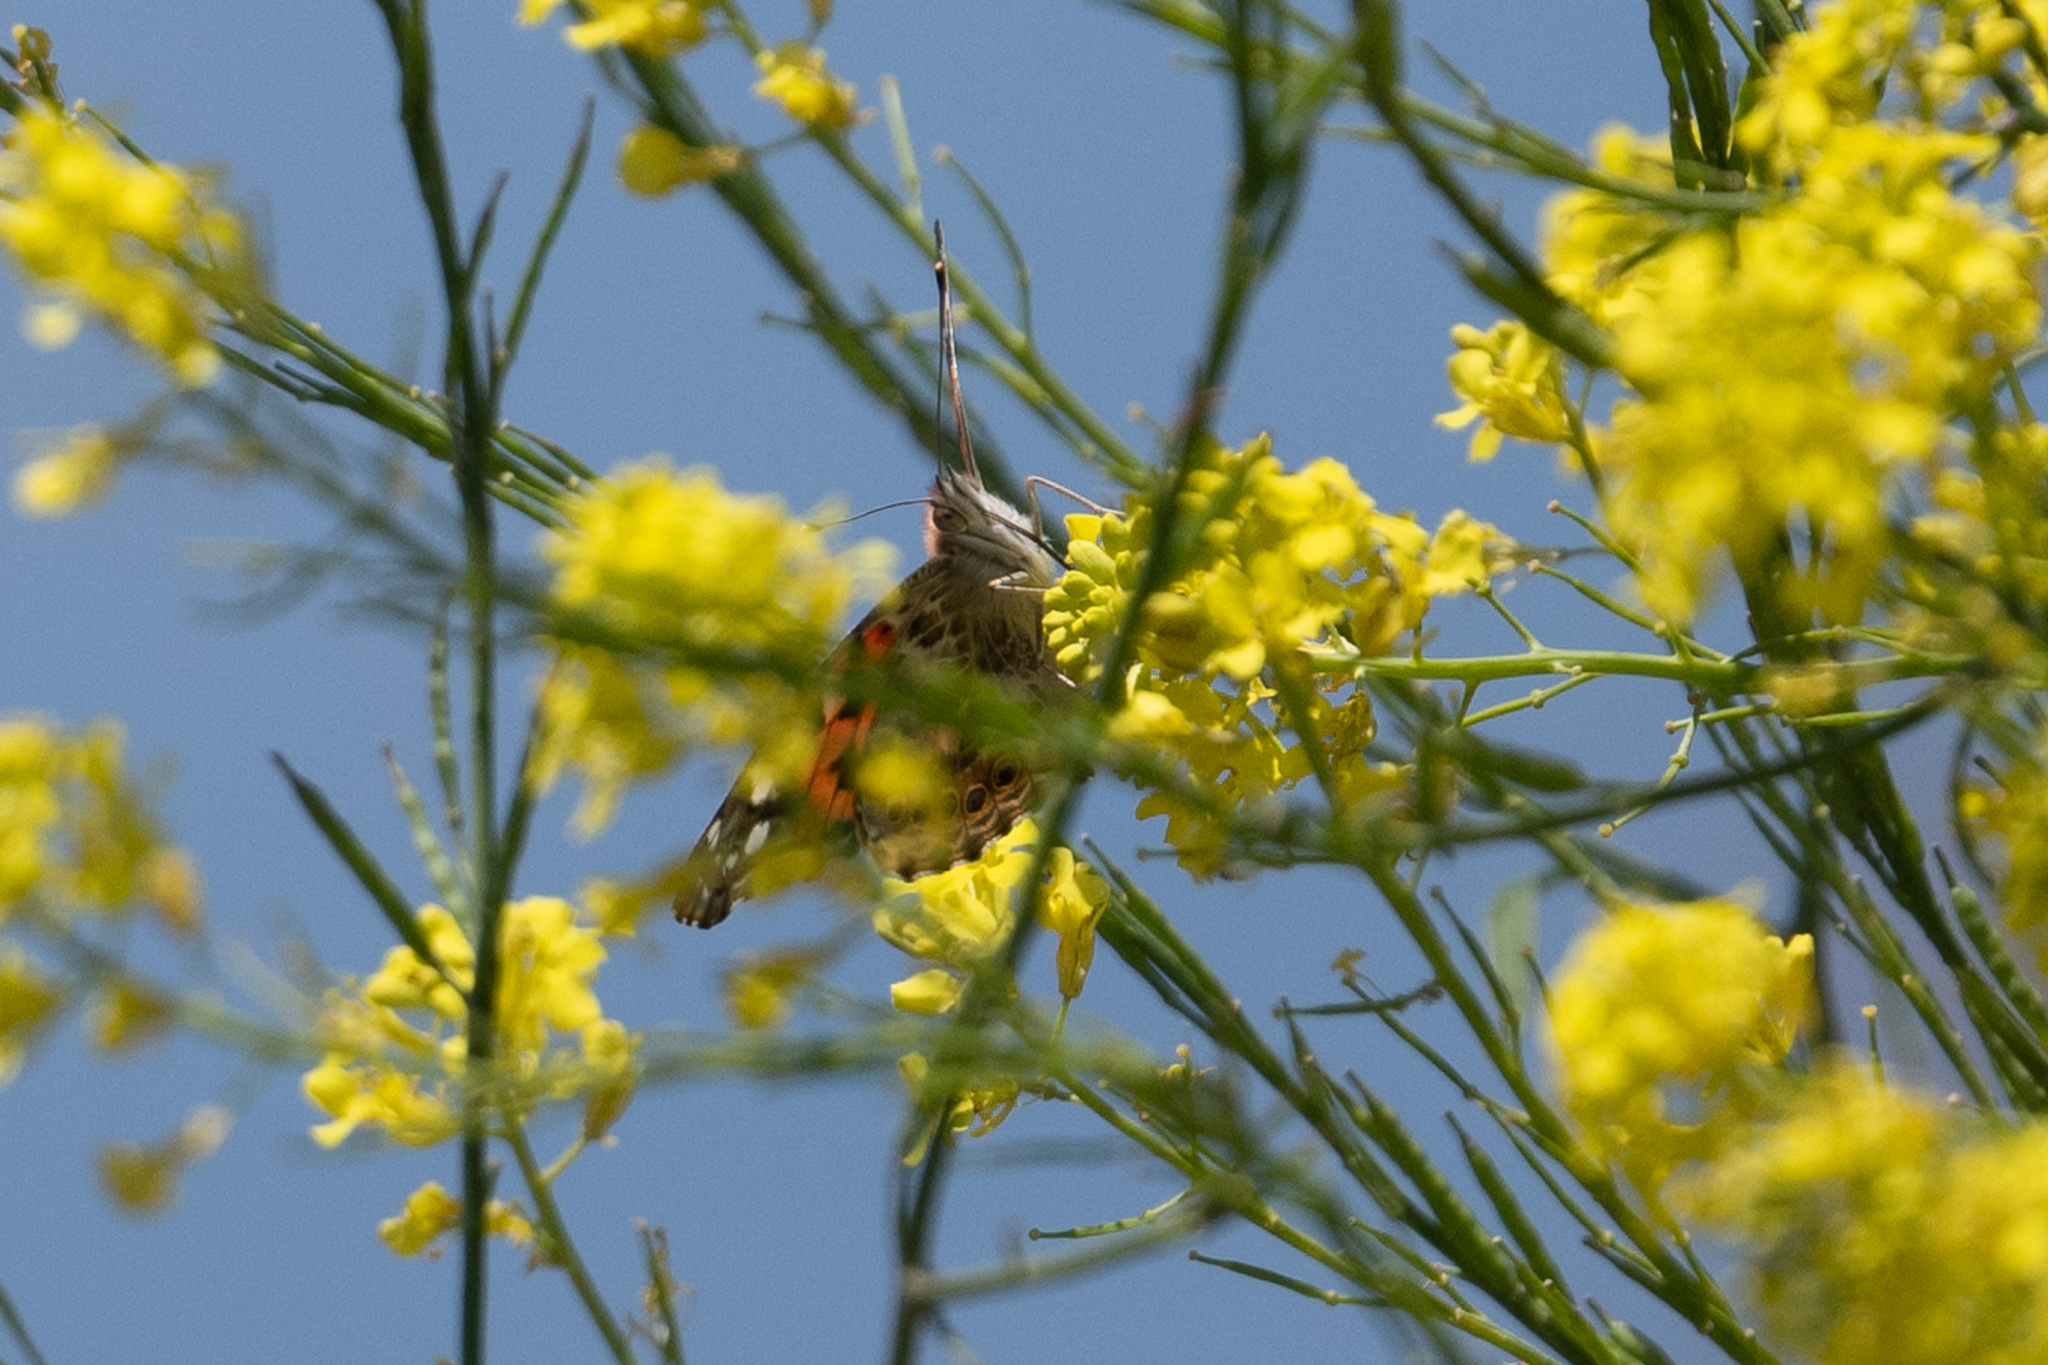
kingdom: Animalia
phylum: Arthropoda
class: Insecta
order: Lepidoptera
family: Nymphalidae
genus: Vanessa
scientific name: Vanessa cardui
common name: Painted lady
